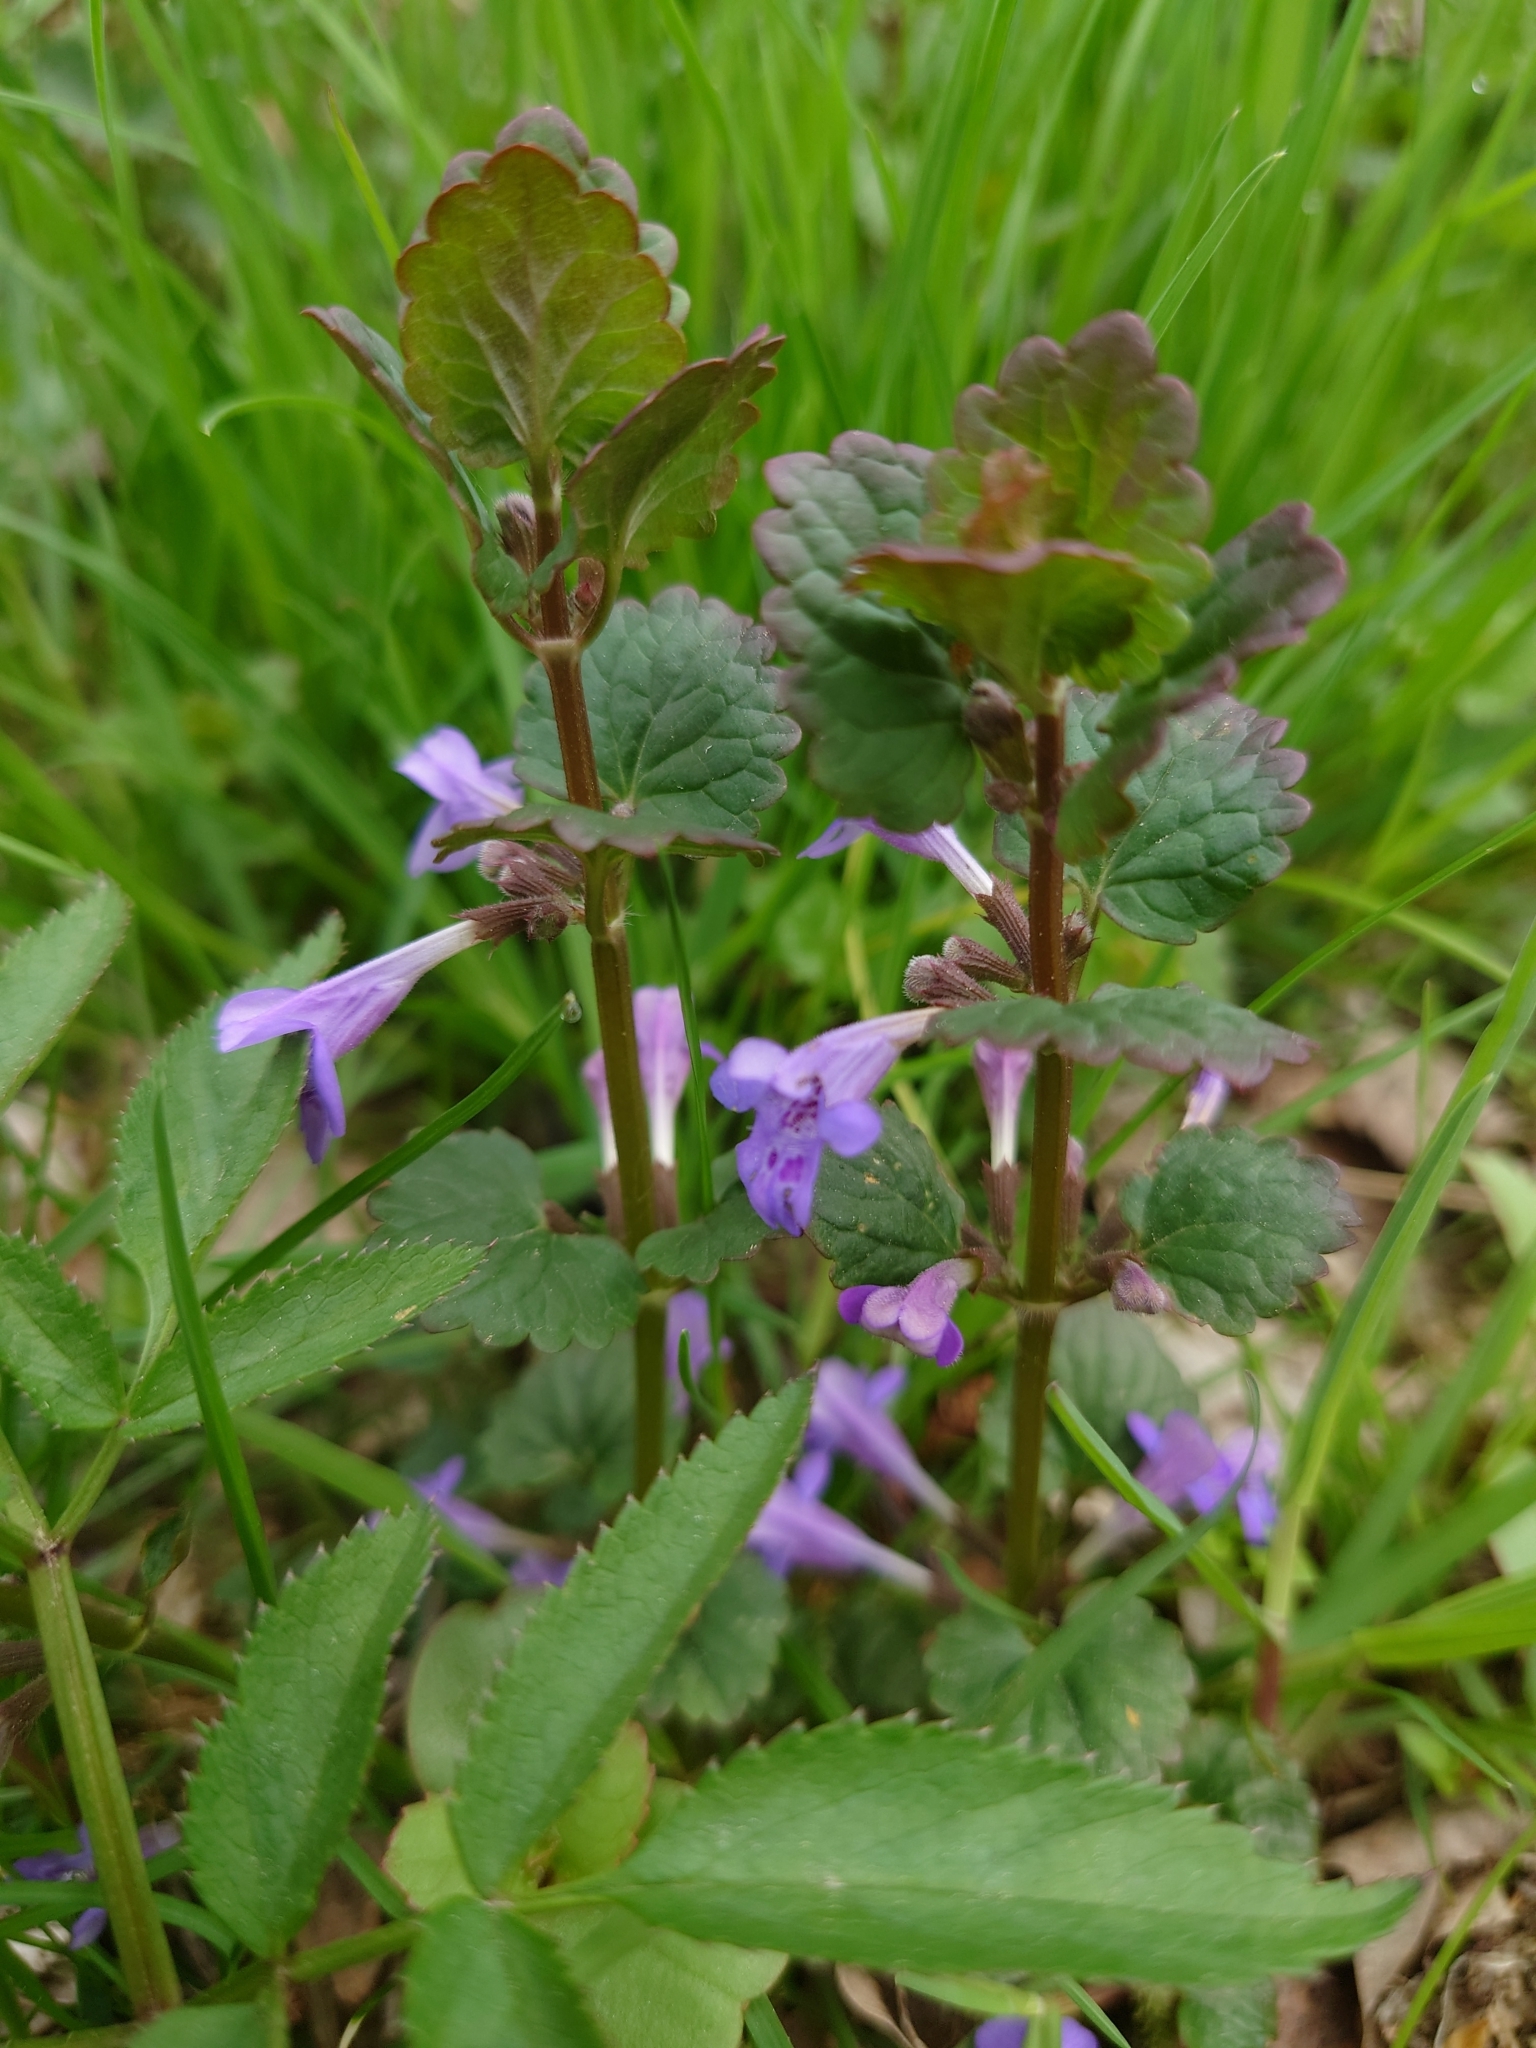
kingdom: Plantae
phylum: Tracheophyta
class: Magnoliopsida
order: Lamiales
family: Lamiaceae
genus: Glechoma
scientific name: Glechoma hederacea
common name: Ground ivy
